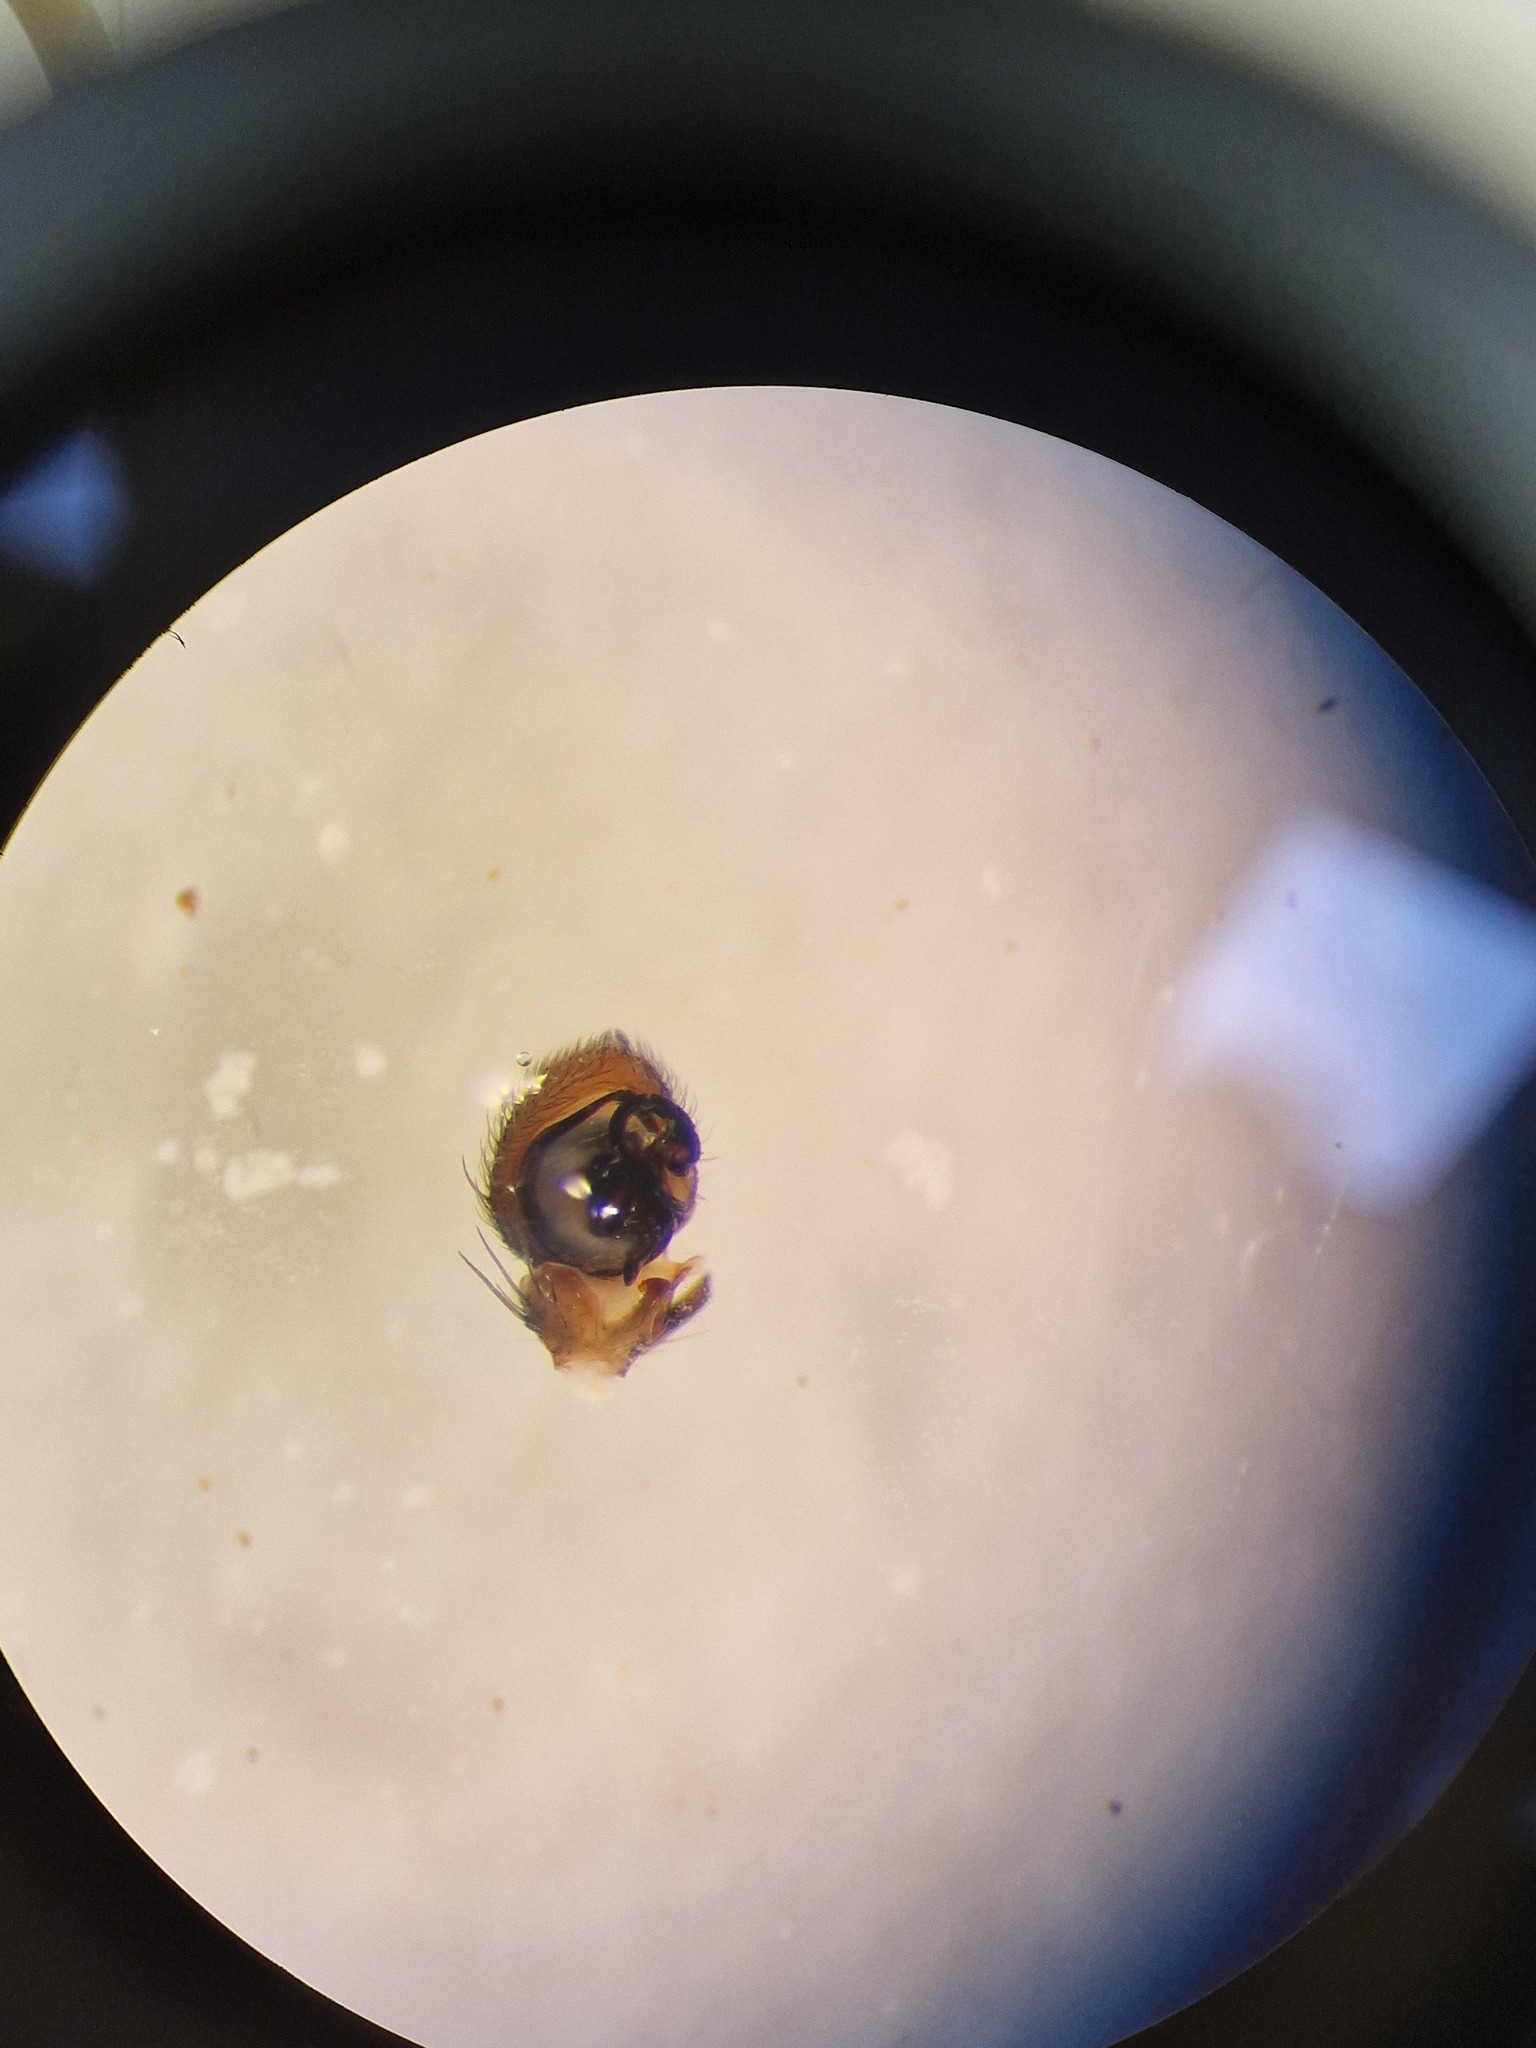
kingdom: Animalia
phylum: Arthropoda
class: Arachnida
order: Araneae
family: Thomisidae
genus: Ozyptila
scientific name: Ozyptila atomaria
